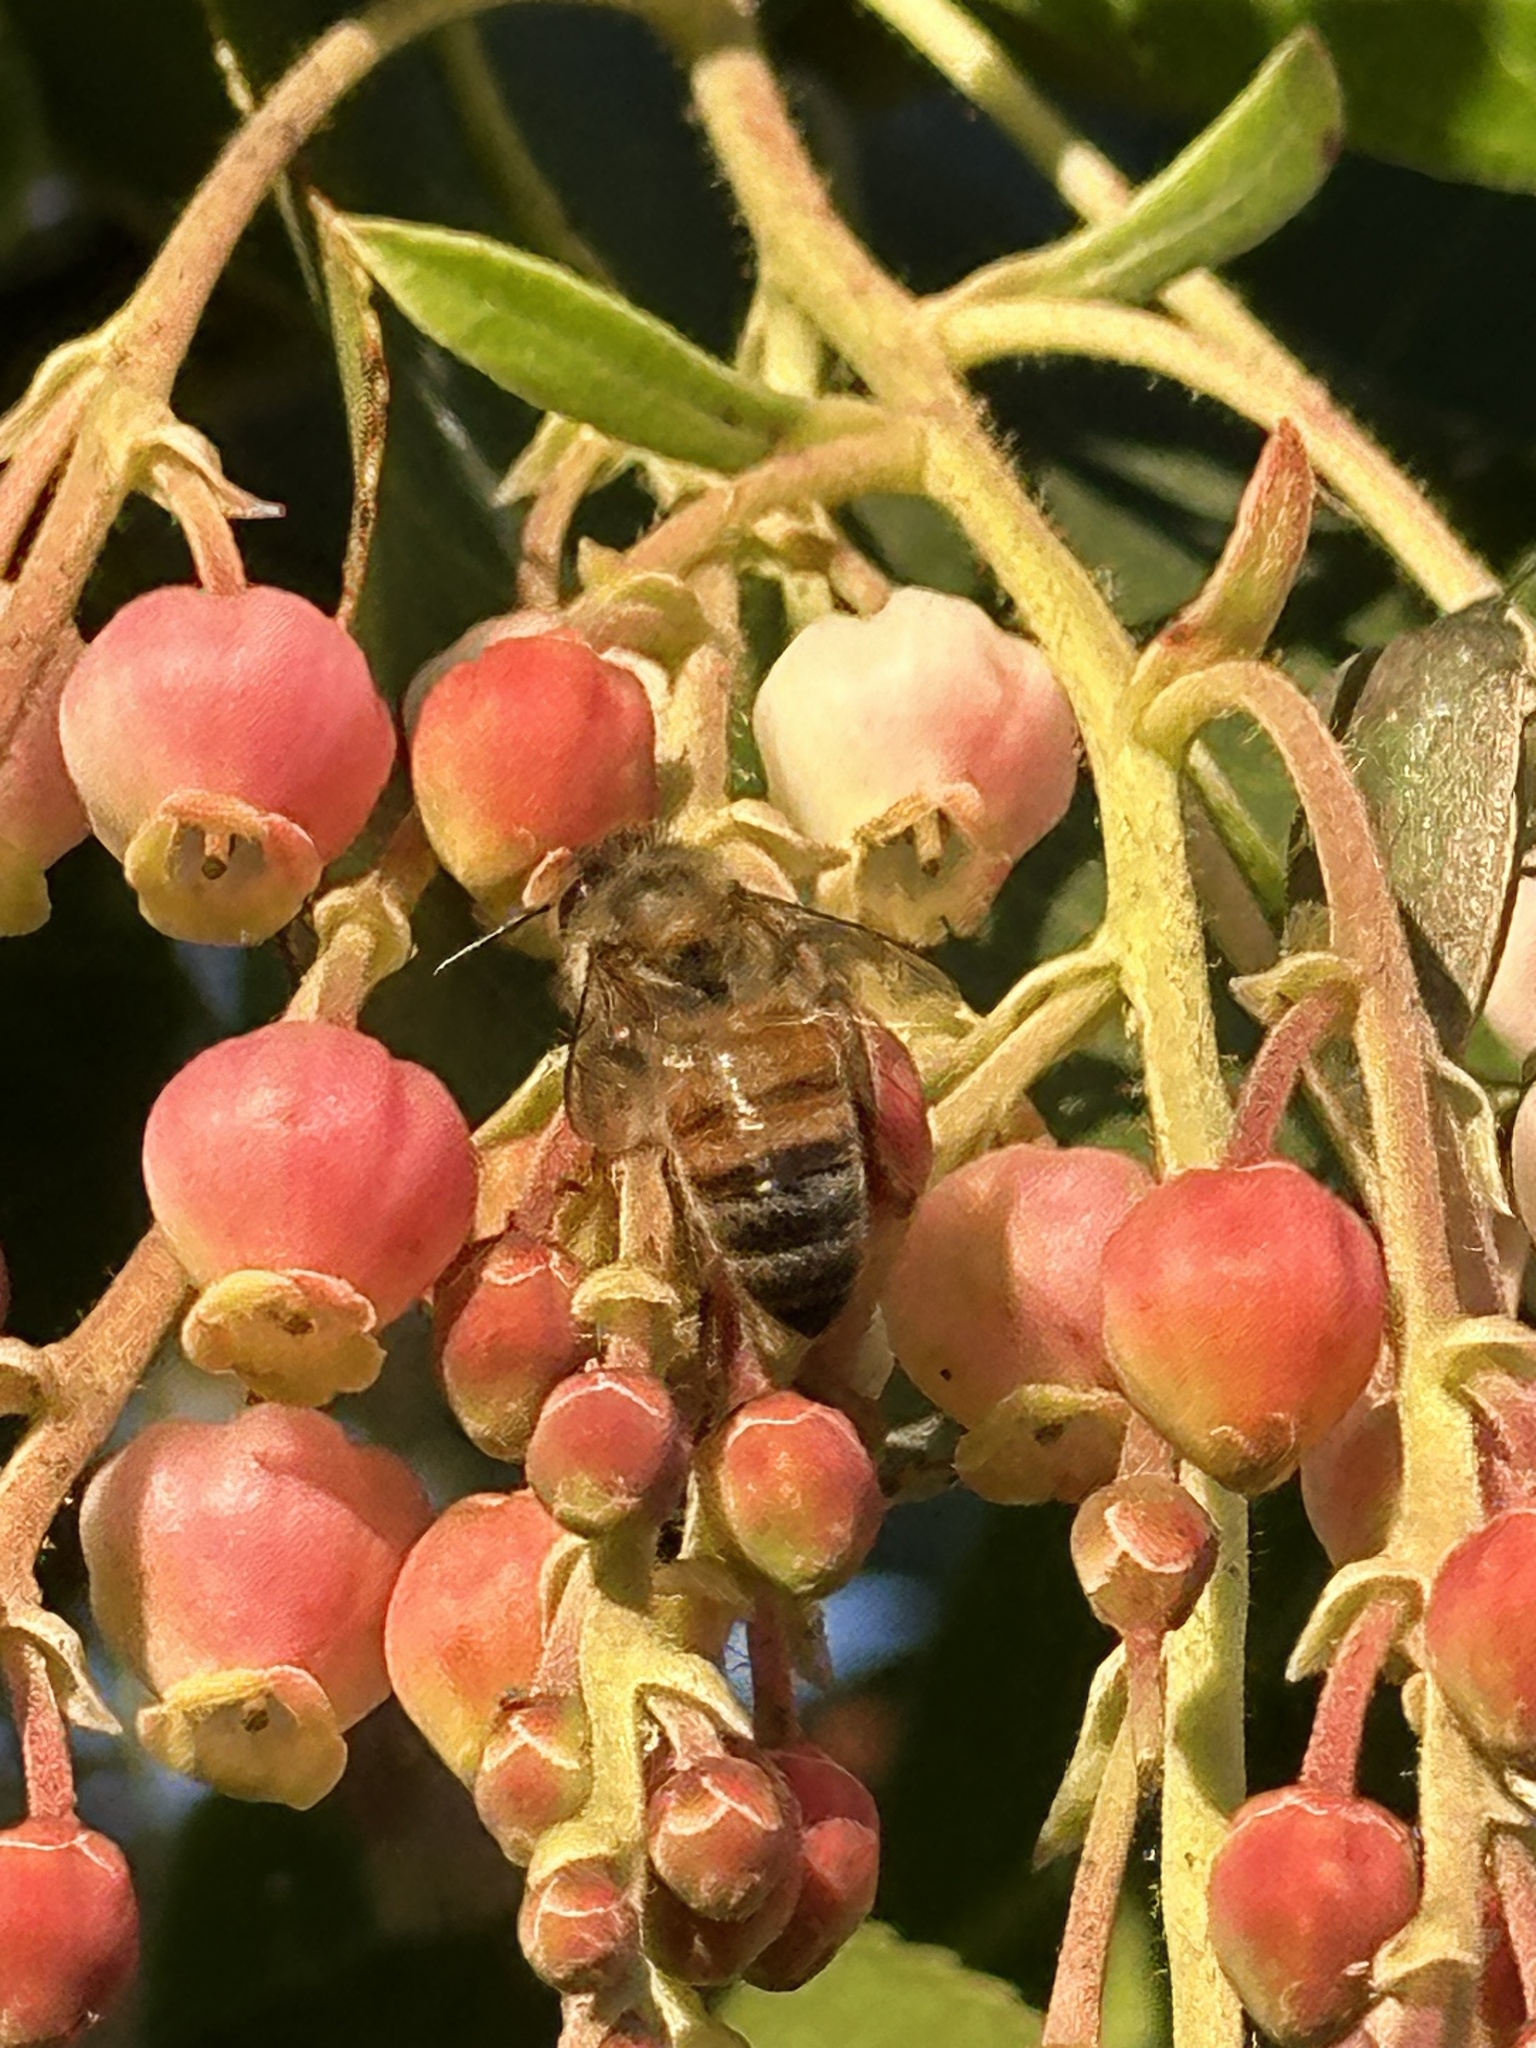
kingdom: Animalia
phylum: Arthropoda
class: Insecta
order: Hymenoptera
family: Apidae
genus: Apis
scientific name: Apis mellifera
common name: Honey bee
